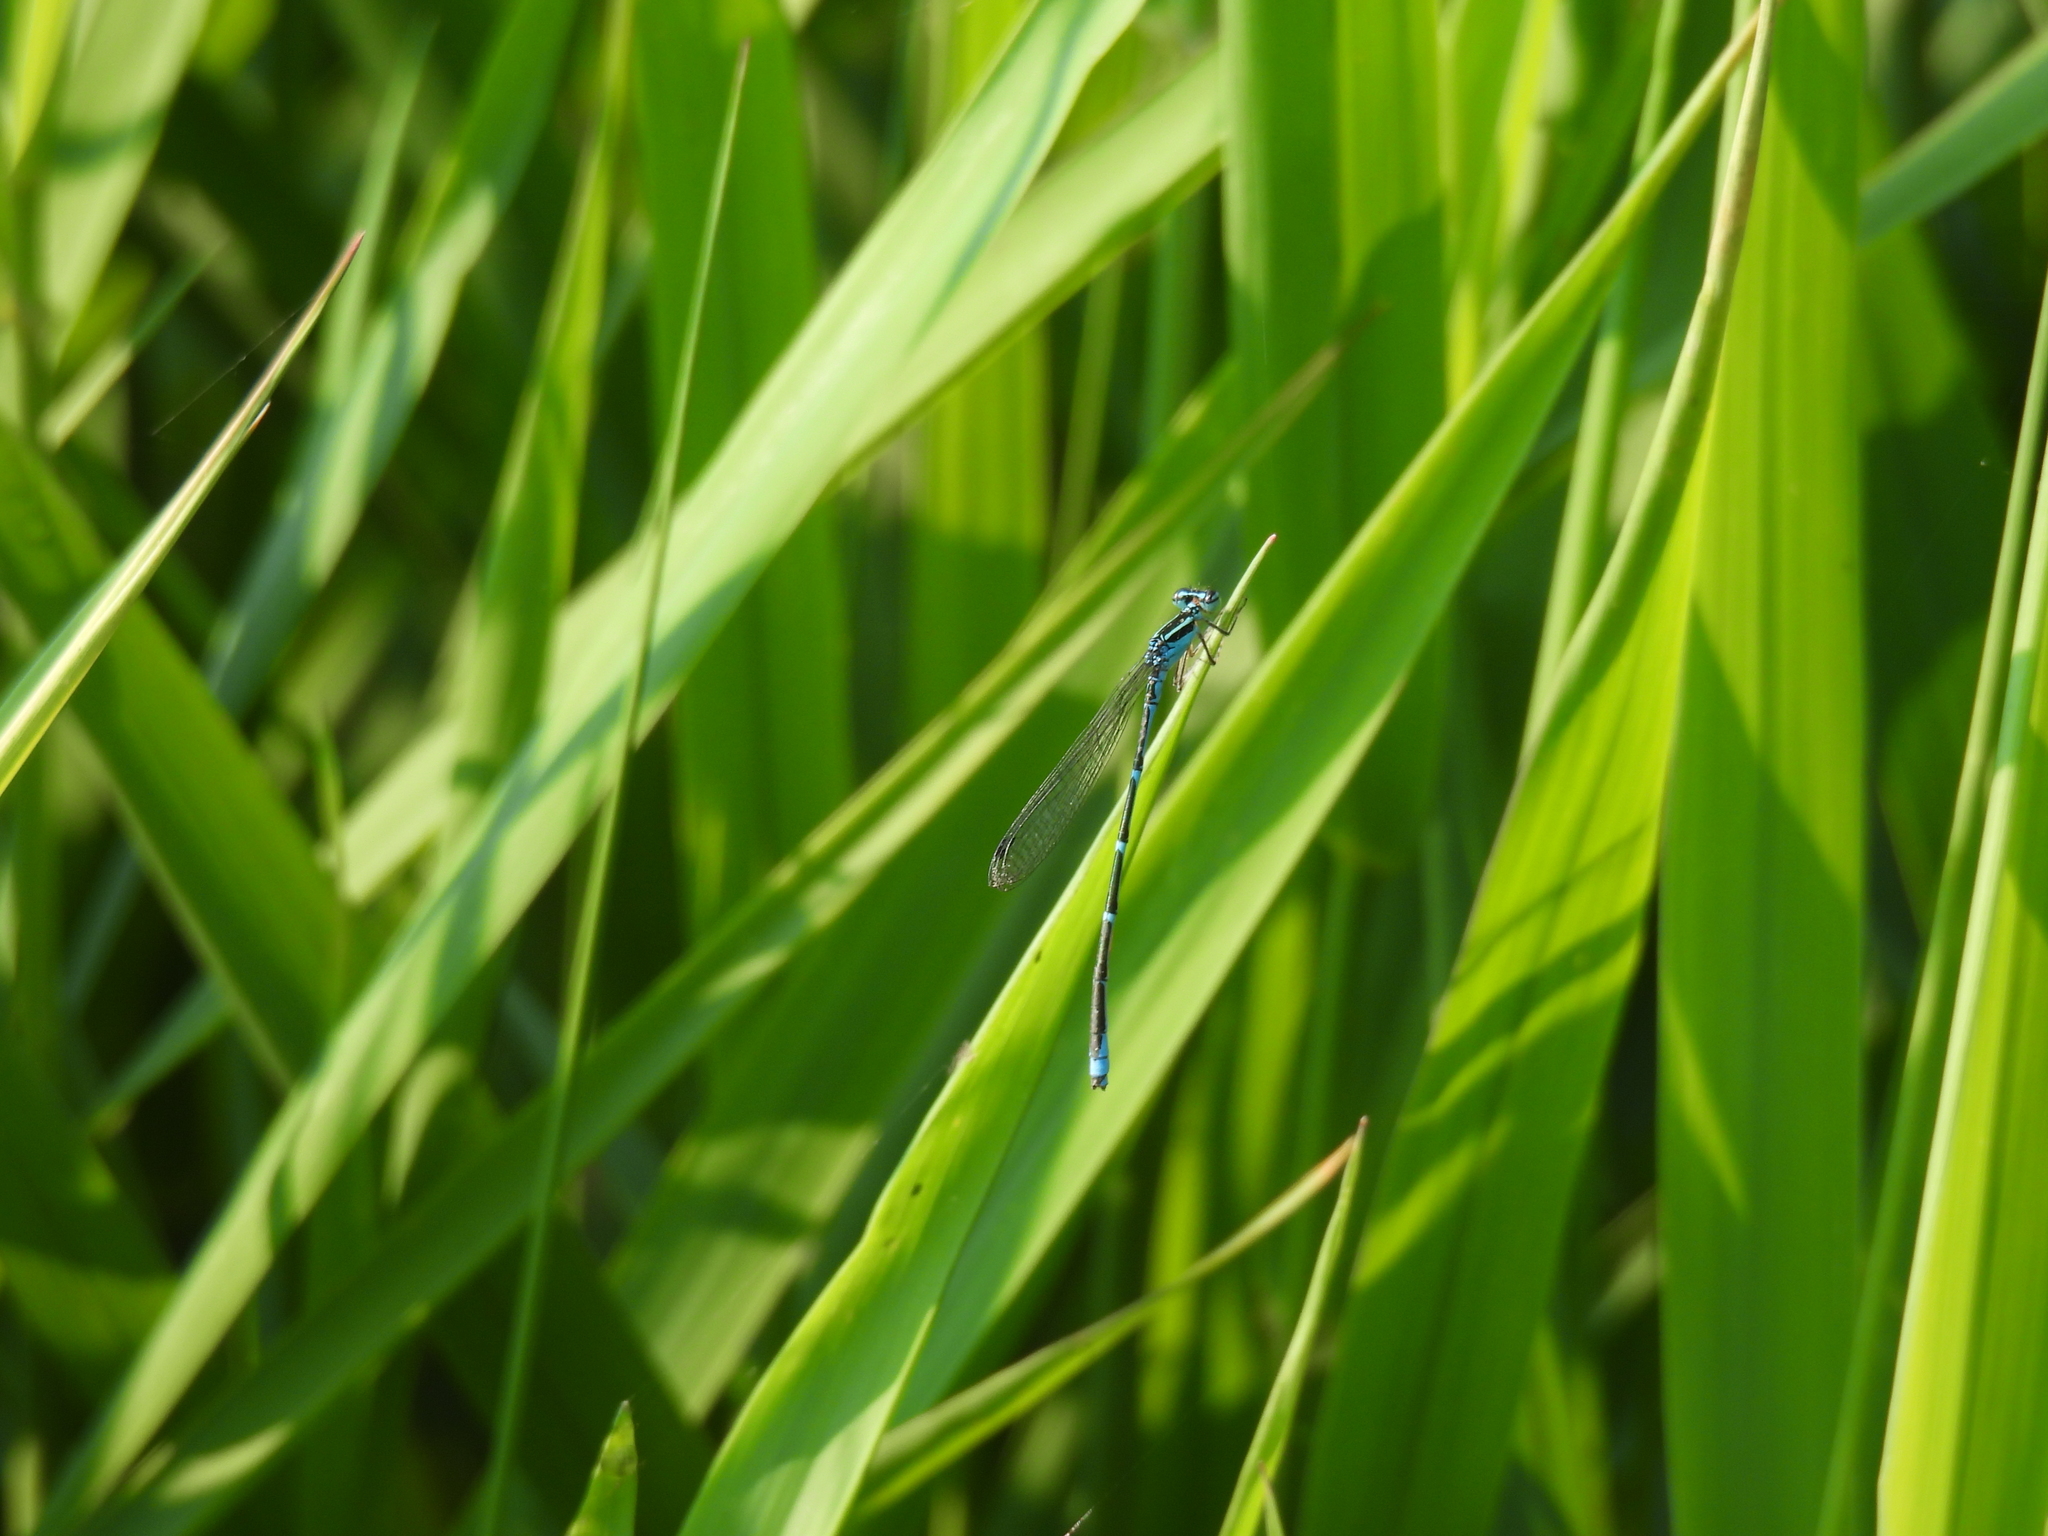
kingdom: Animalia
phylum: Arthropoda
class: Insecta
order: Odonata
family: Coenagrionidae
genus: Enallagma
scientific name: Enallagma exsulans
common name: Stream bluet
